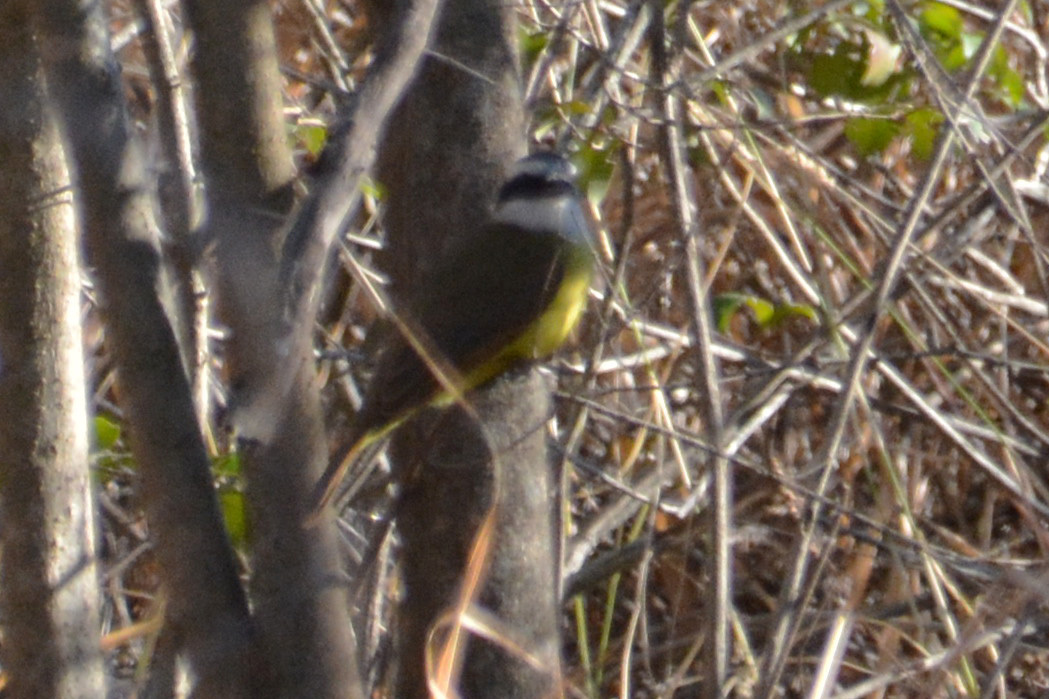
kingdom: Animalia
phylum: Chordata
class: Aves
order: Passeriformes
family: Tyrannidae
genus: Pitangus
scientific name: Pitangus sulphuratus
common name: Great kiskadee
